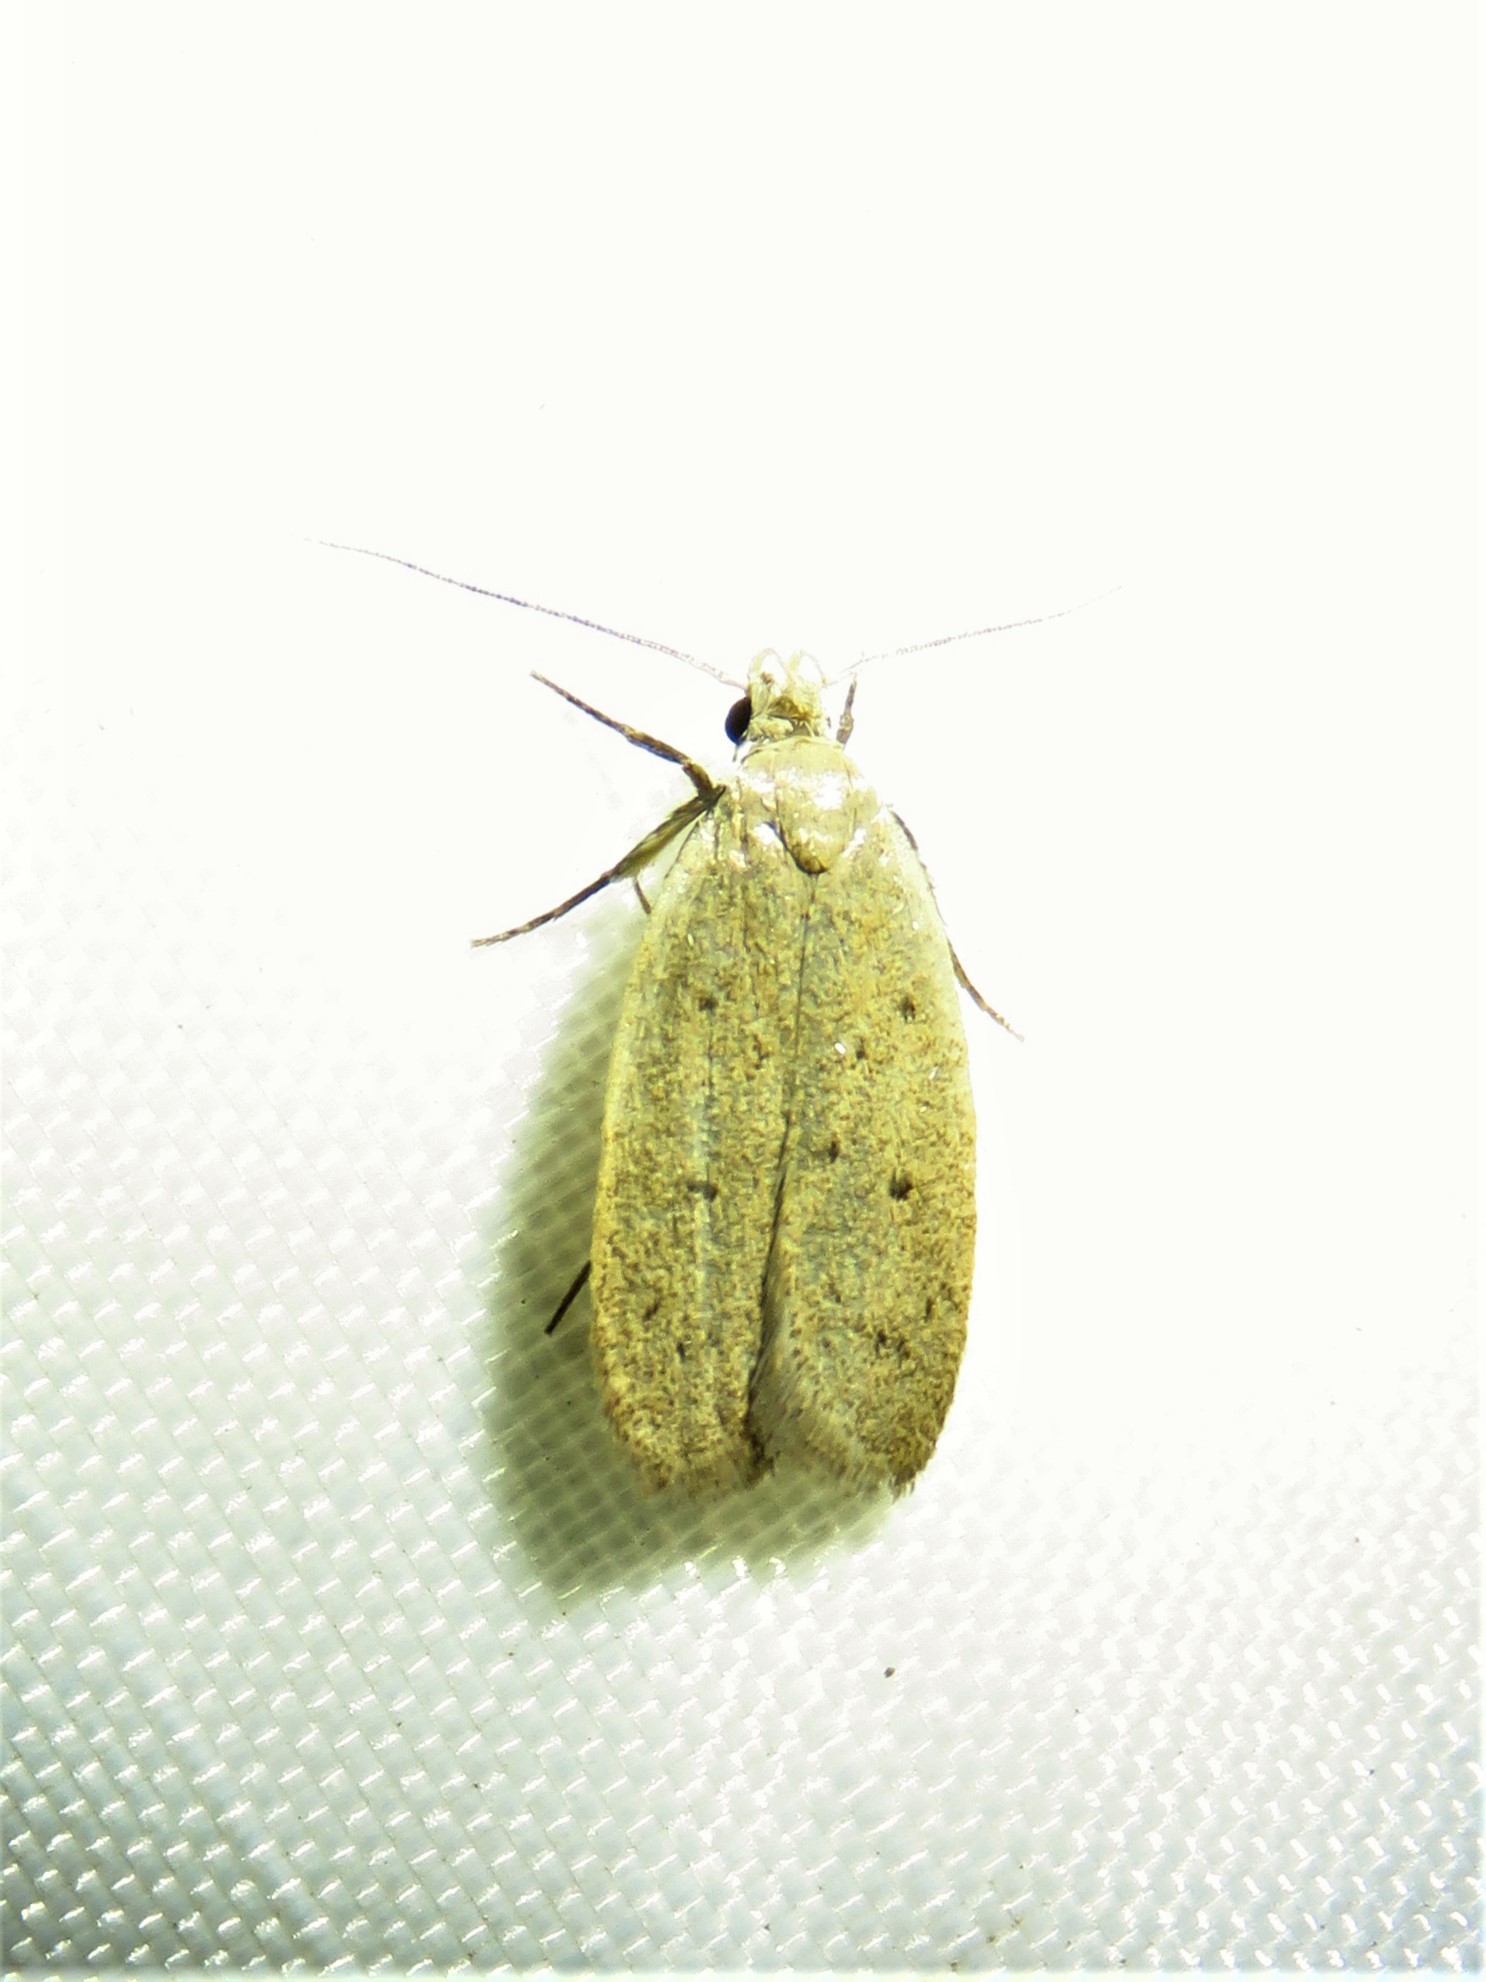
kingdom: Animalia
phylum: Arthropoda
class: Insecta
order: Lepidoptera
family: Oecophoridae
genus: Inga
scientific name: Inga obscuromaculella
